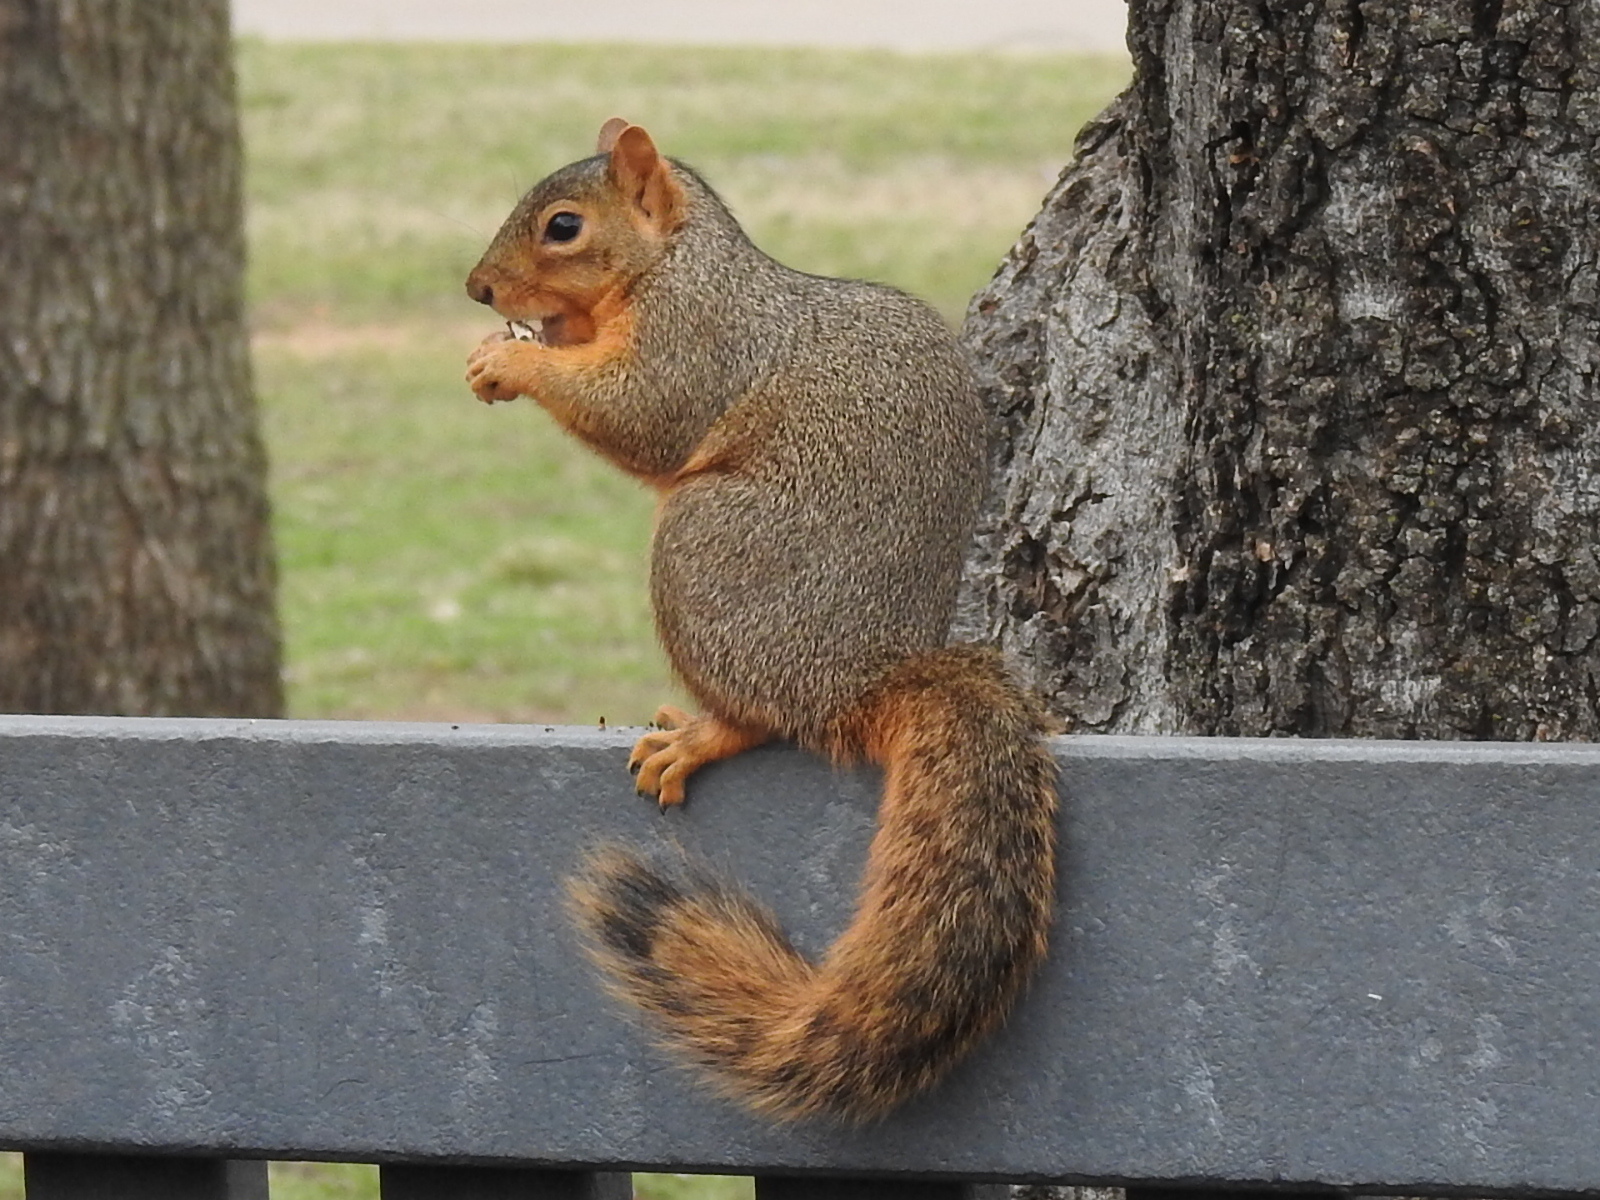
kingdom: Animalia
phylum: Chordata
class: Mammalia
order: Rodentia
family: Sciuridae
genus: Sciurus
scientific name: Sciurus niger
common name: Fox squirrel
